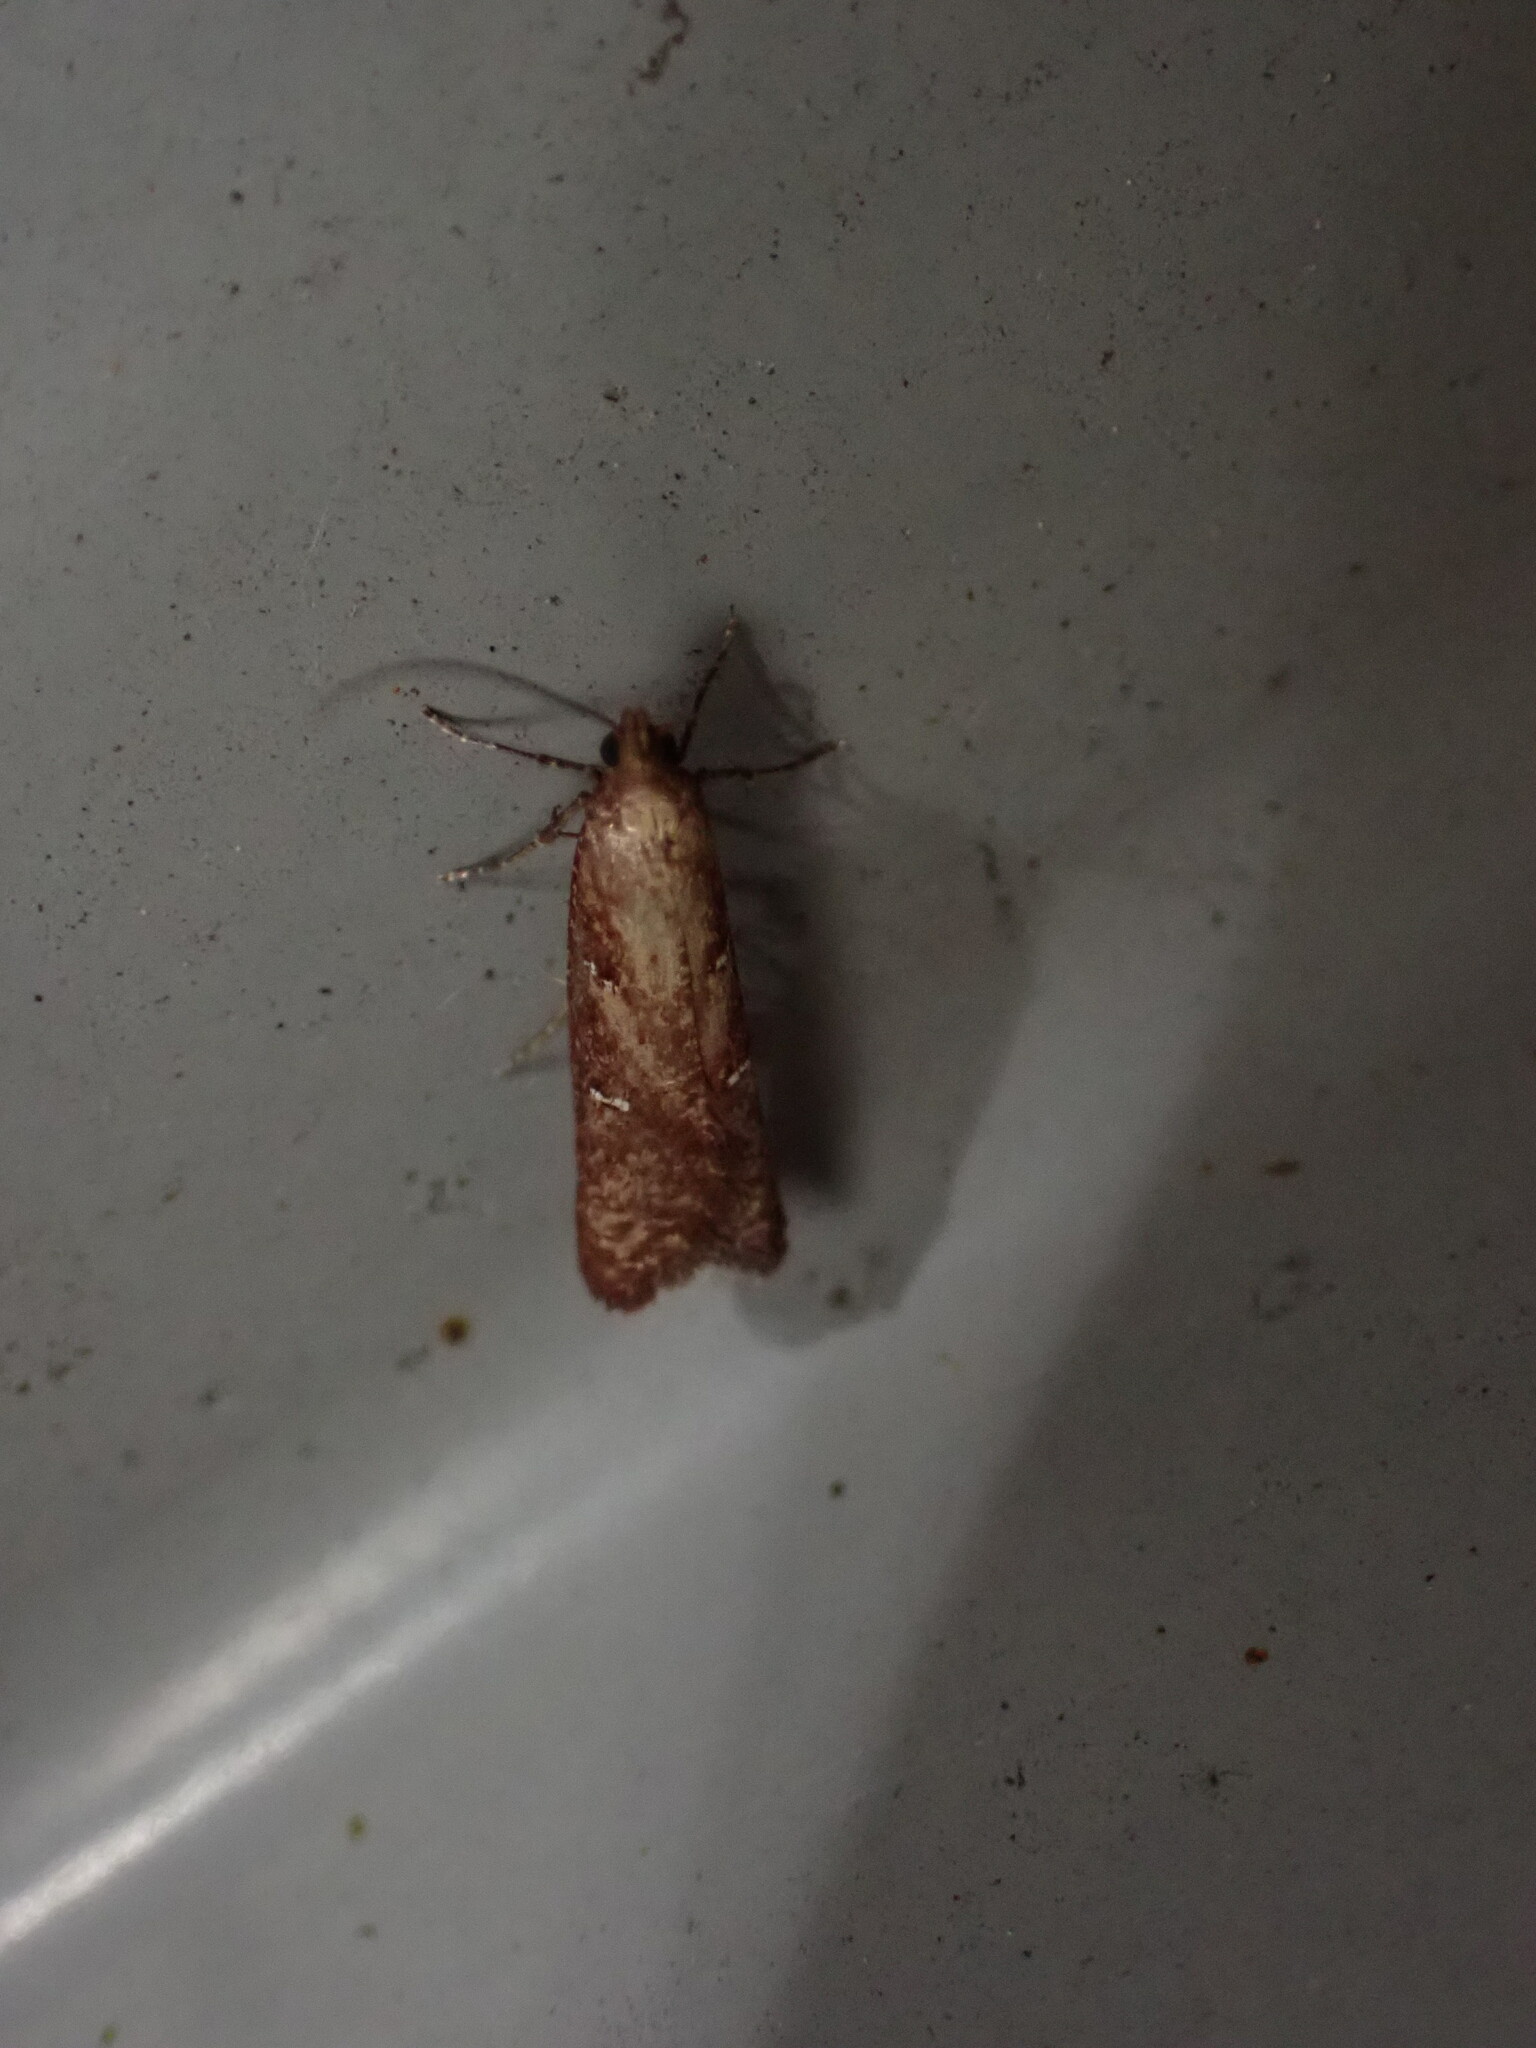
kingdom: Animalia
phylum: Arthropoda
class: Insecta
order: Lepidoptera
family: Plutellidae
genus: Cadmogenes
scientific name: Cadmogenes literata
